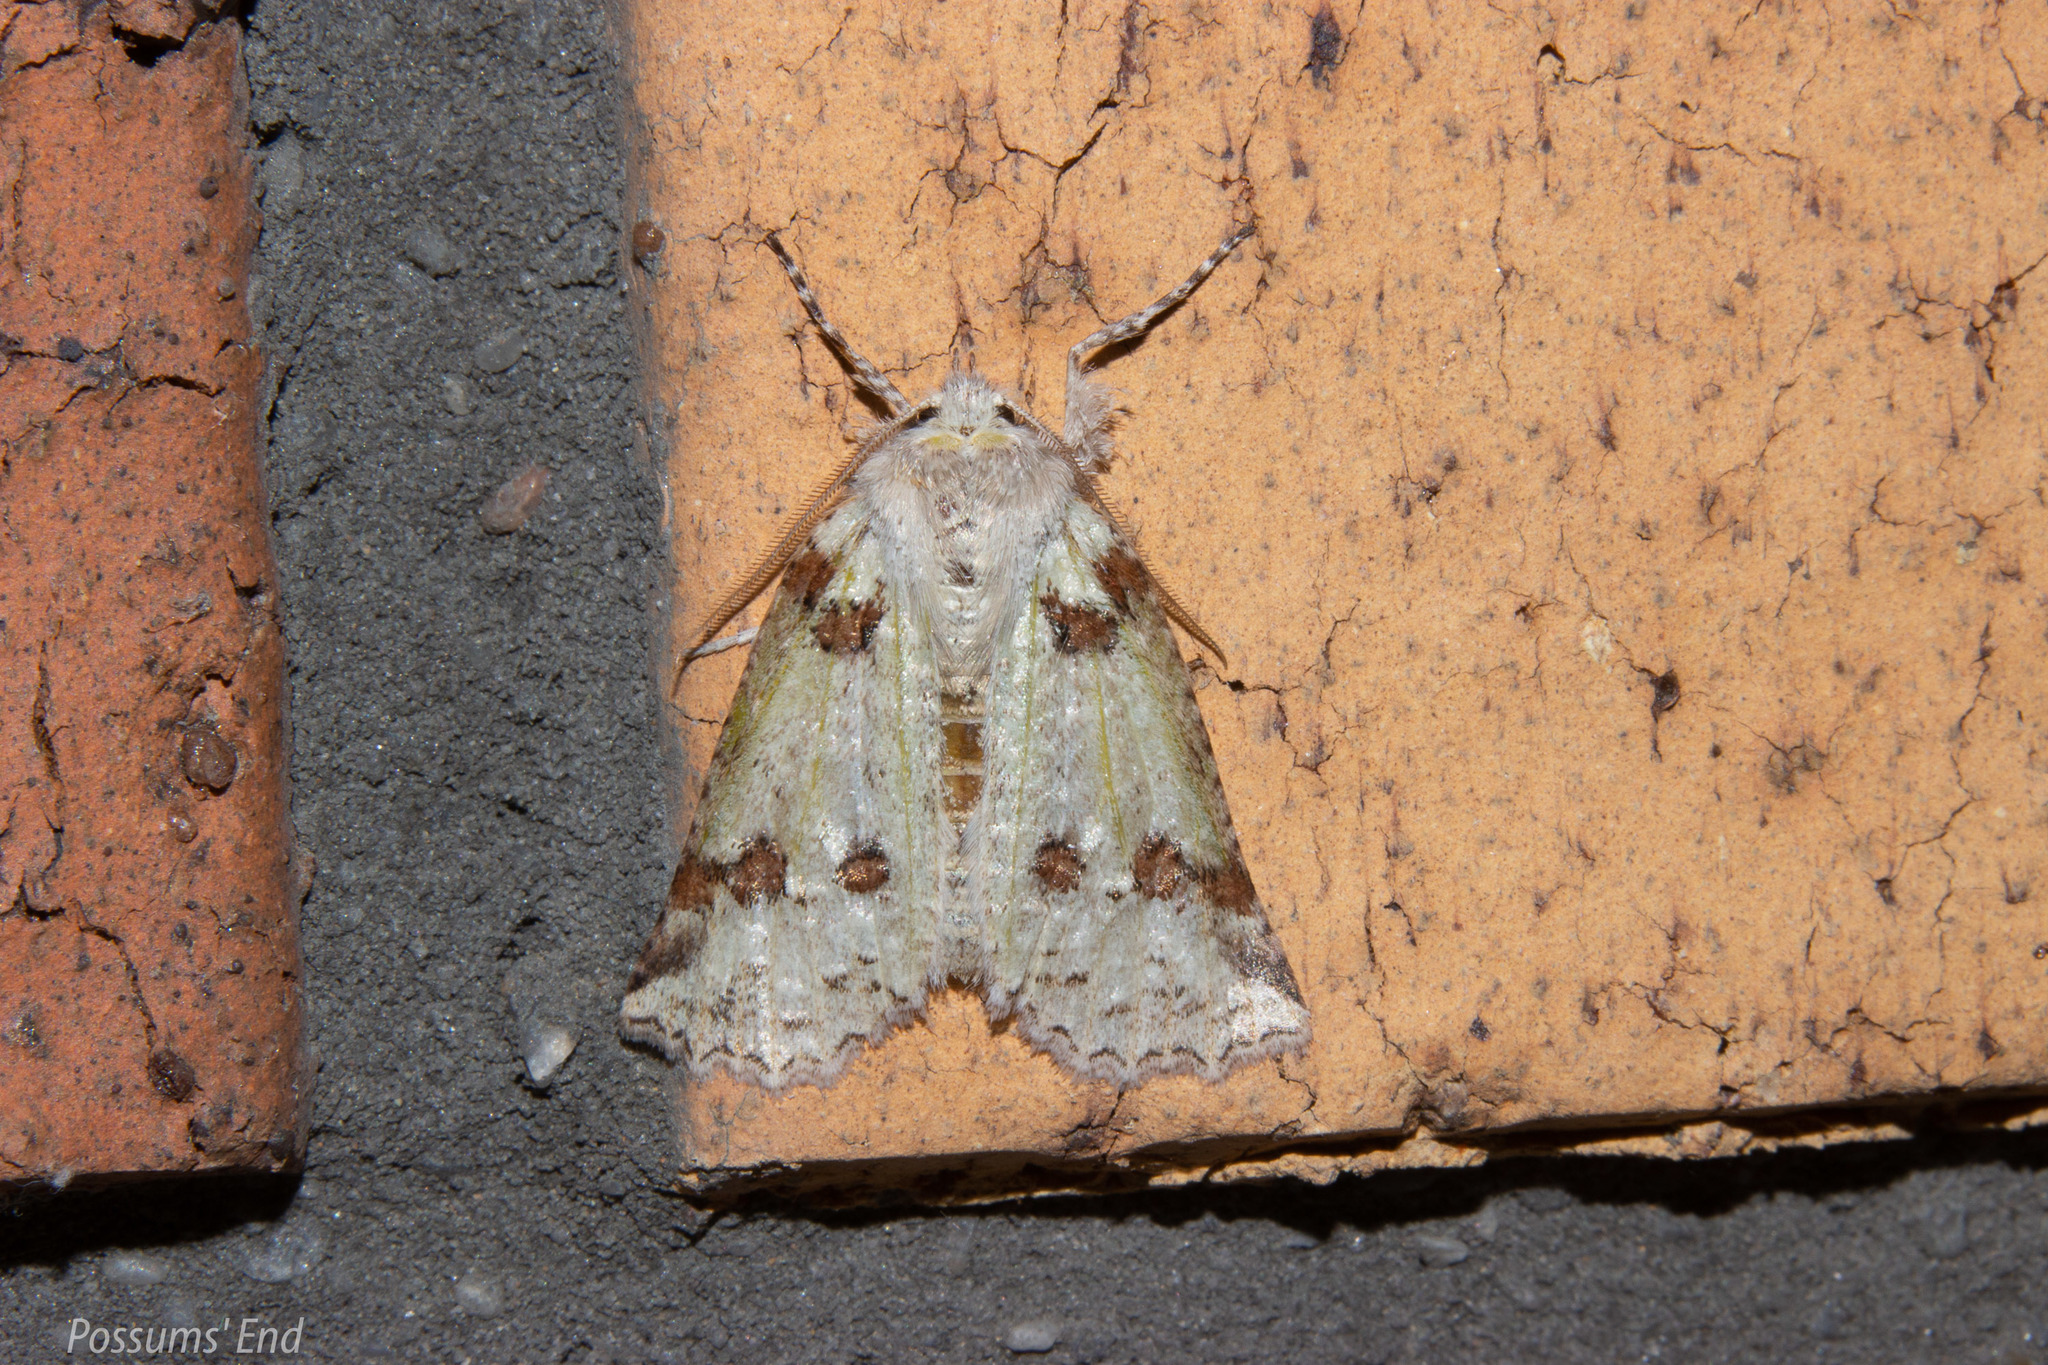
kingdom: Animalia
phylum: Arthropoda
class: Insecta
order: Lepidoptera
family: Geometridae
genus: Declana
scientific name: Declana floccosa
